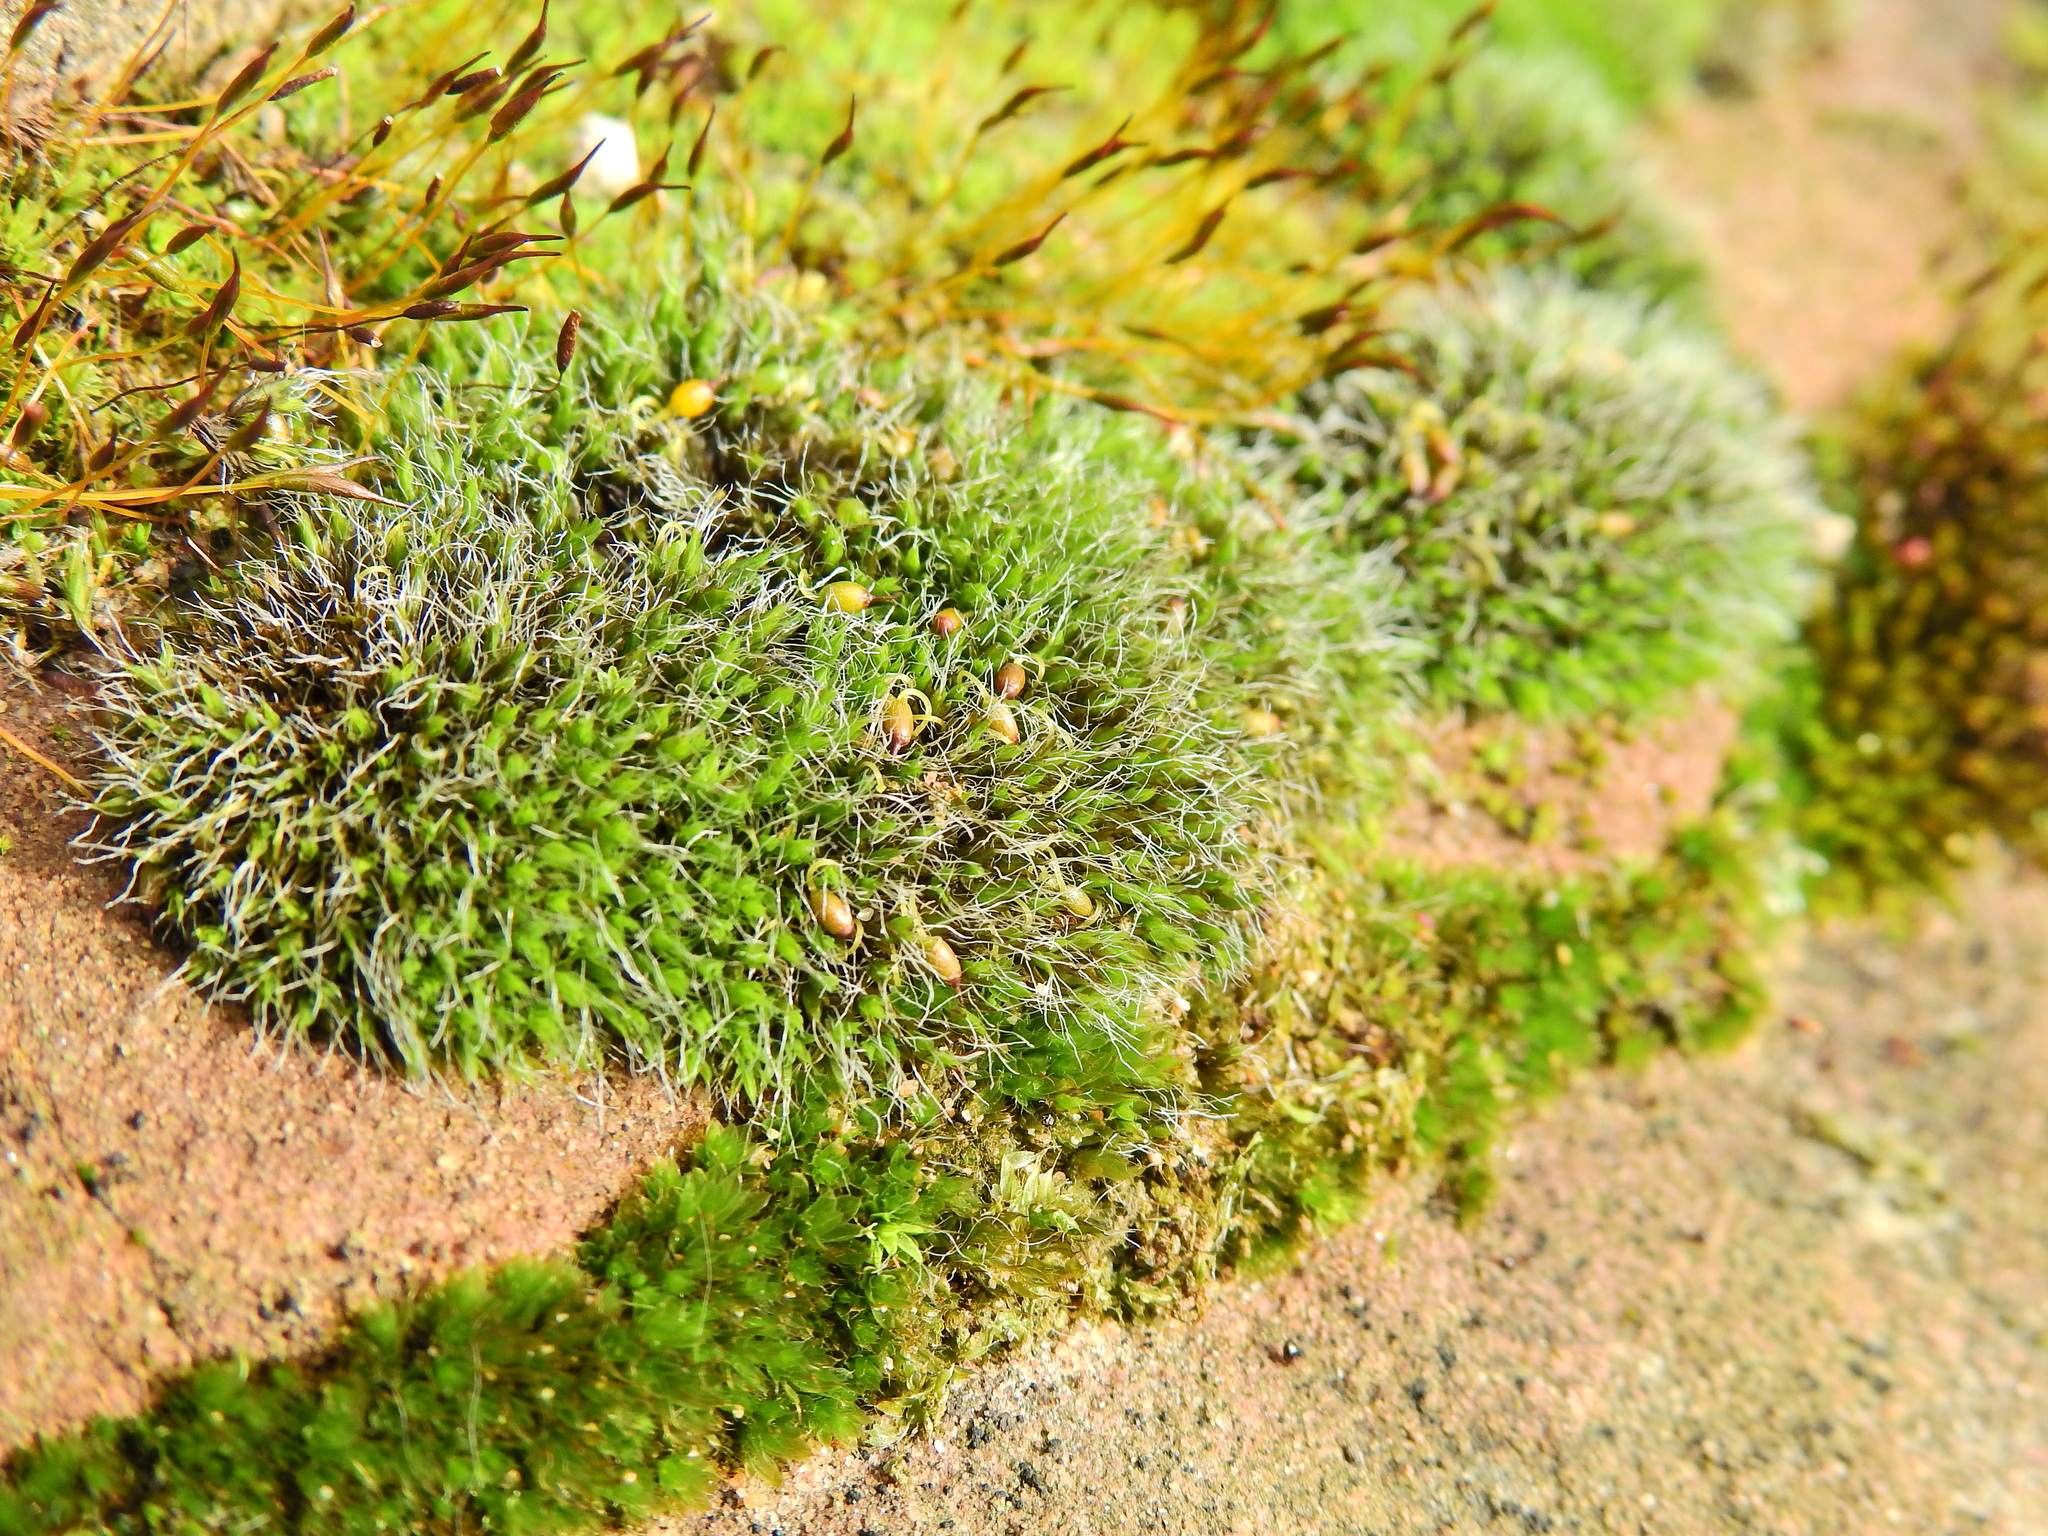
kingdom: Plantae
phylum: Bryophyta
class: Bryopsida
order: Grimmiales
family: Grimmiaceae
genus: Grimmia
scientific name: Grimmia pulvinata
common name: Grey-cushioned grimmia
